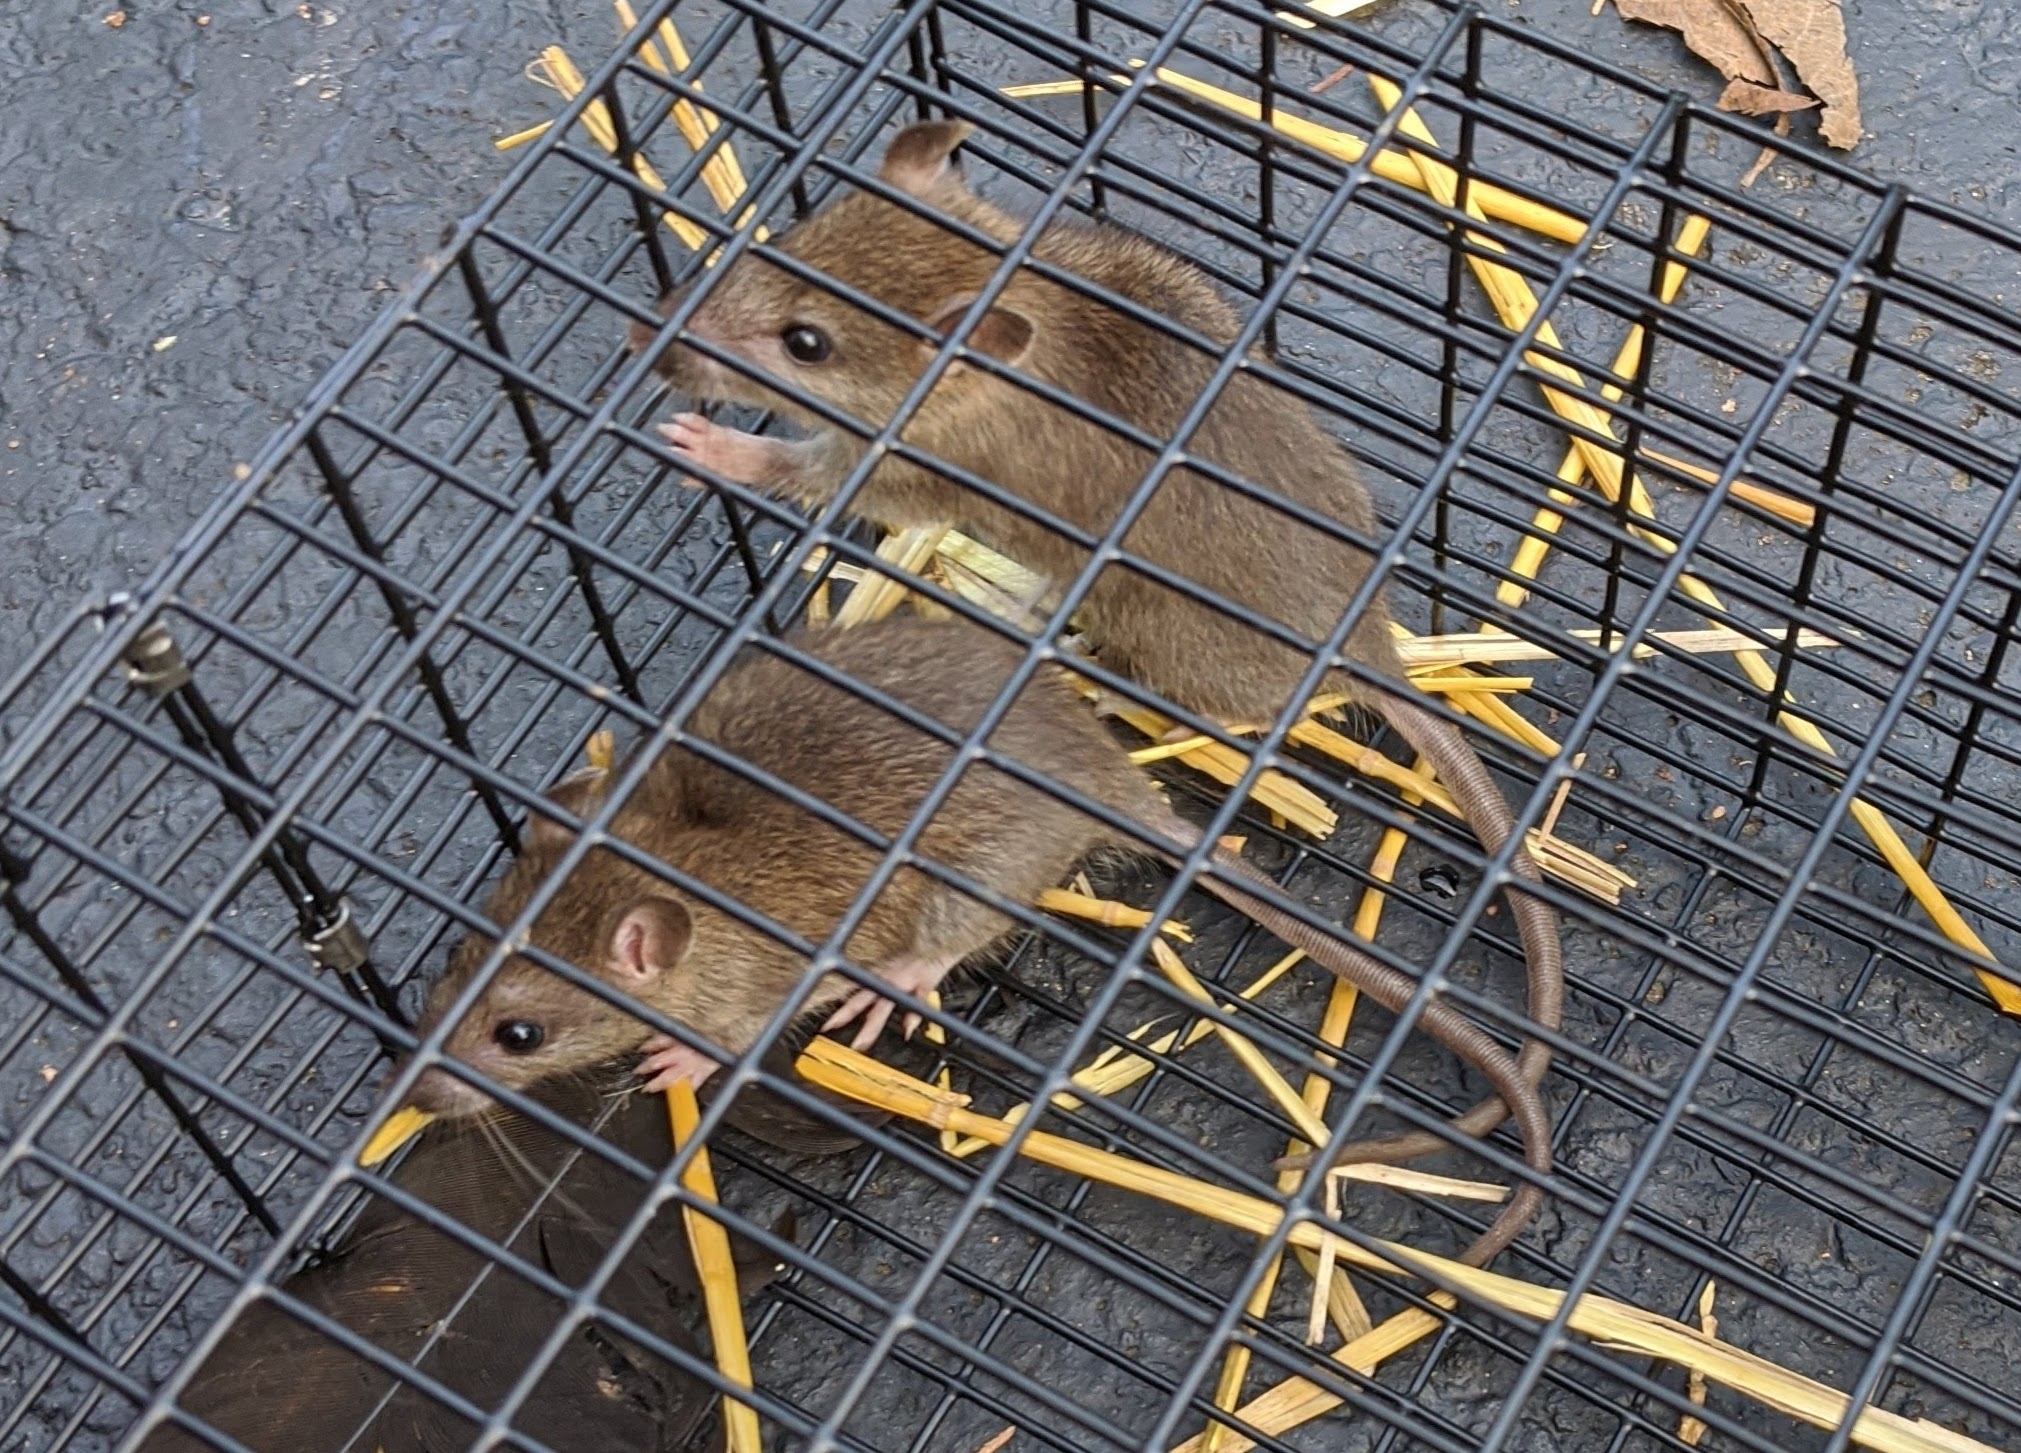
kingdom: Animalia
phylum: Chordata
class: Mammalia
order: Rodentia
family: Muridae
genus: Rattus
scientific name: Rattus norvegicus
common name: Brown rat
